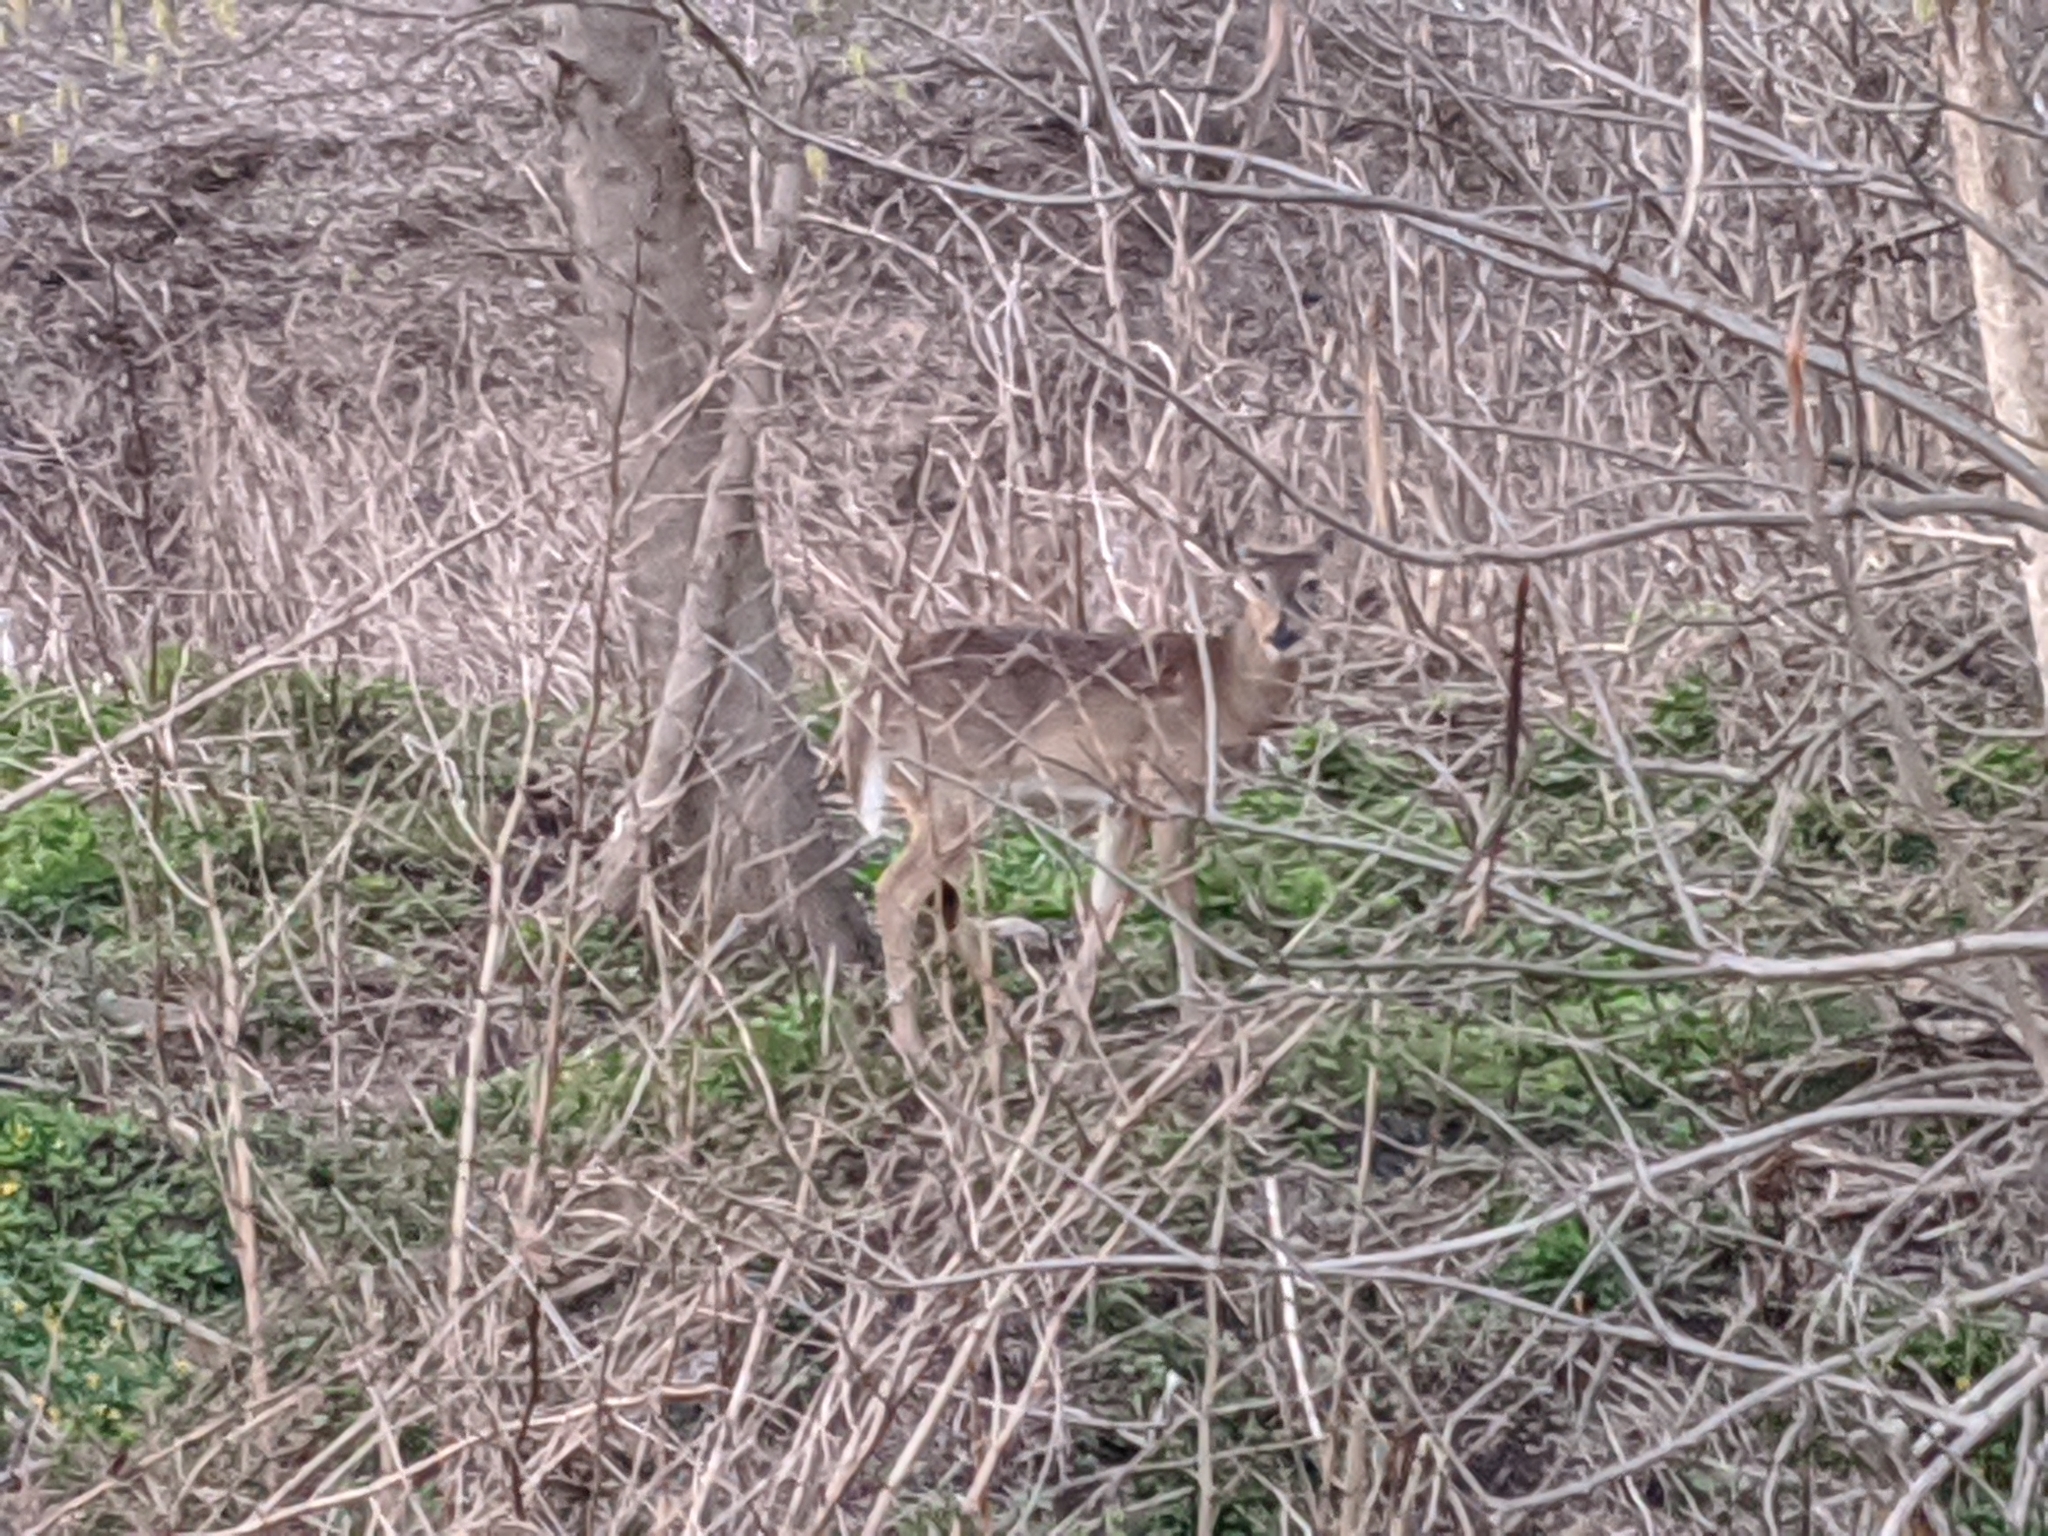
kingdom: Animalia
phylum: Chordata
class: Mammalia
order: Artiodactyla
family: Cervidae
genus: Odocoileus
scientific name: Odocoileus virginianus
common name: White-tailed deer
